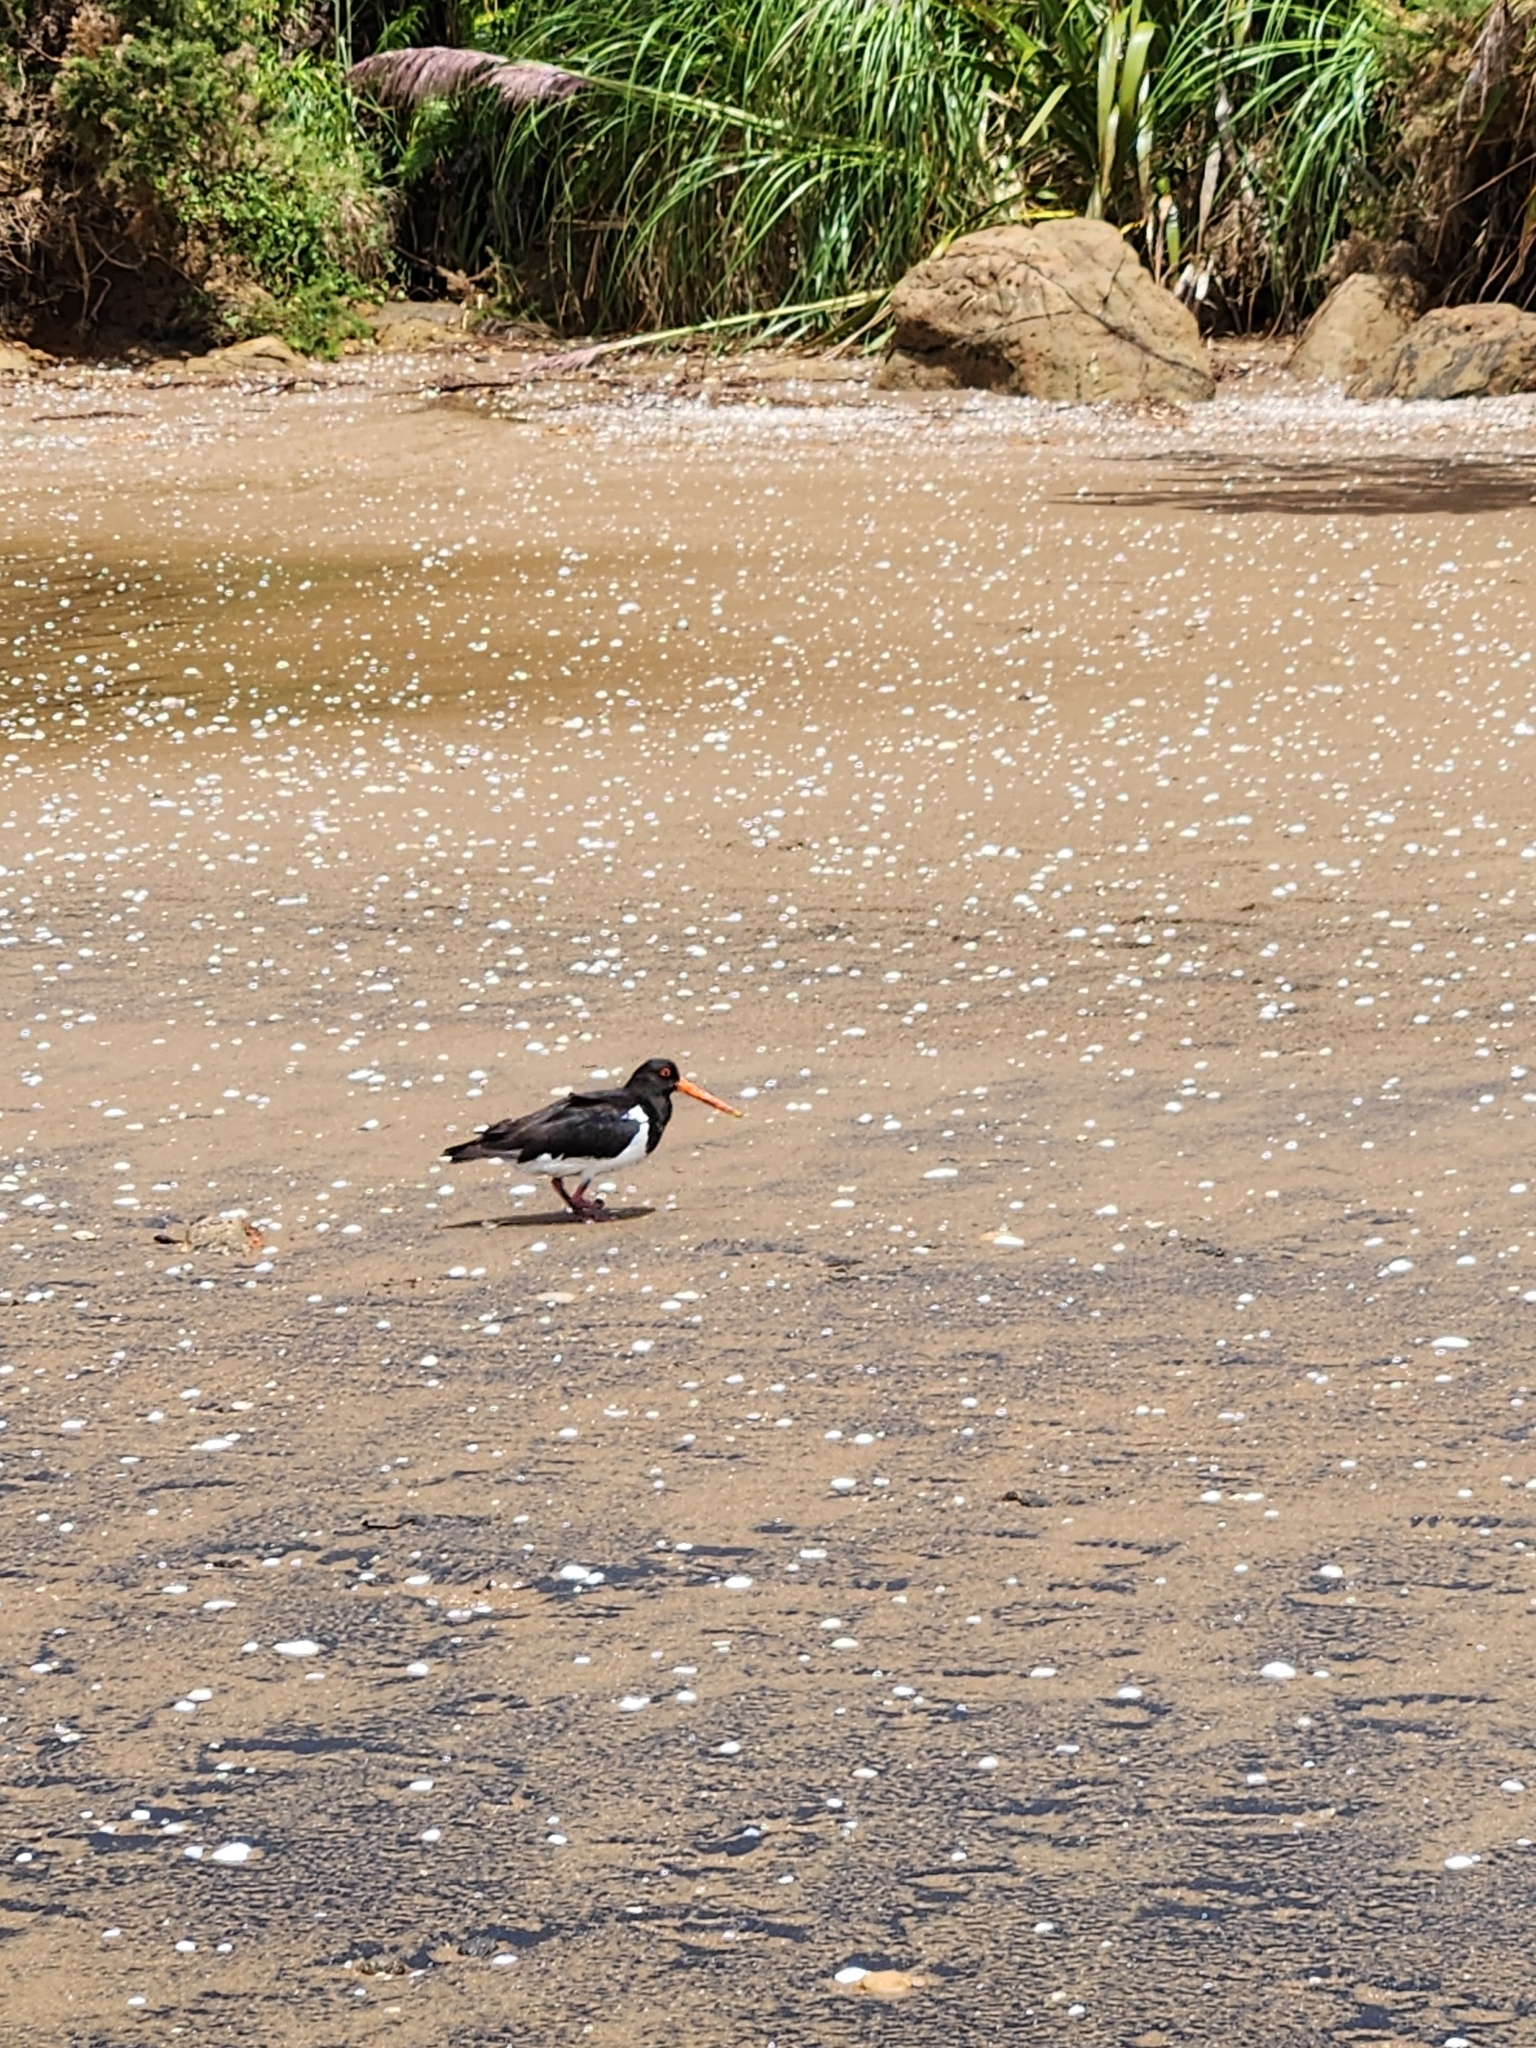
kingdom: Animalia
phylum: Chordata
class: Aves
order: Charadriiformes
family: Haematopodidae
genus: Haematopus
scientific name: Haematopus finschi
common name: South island oystercatcher
